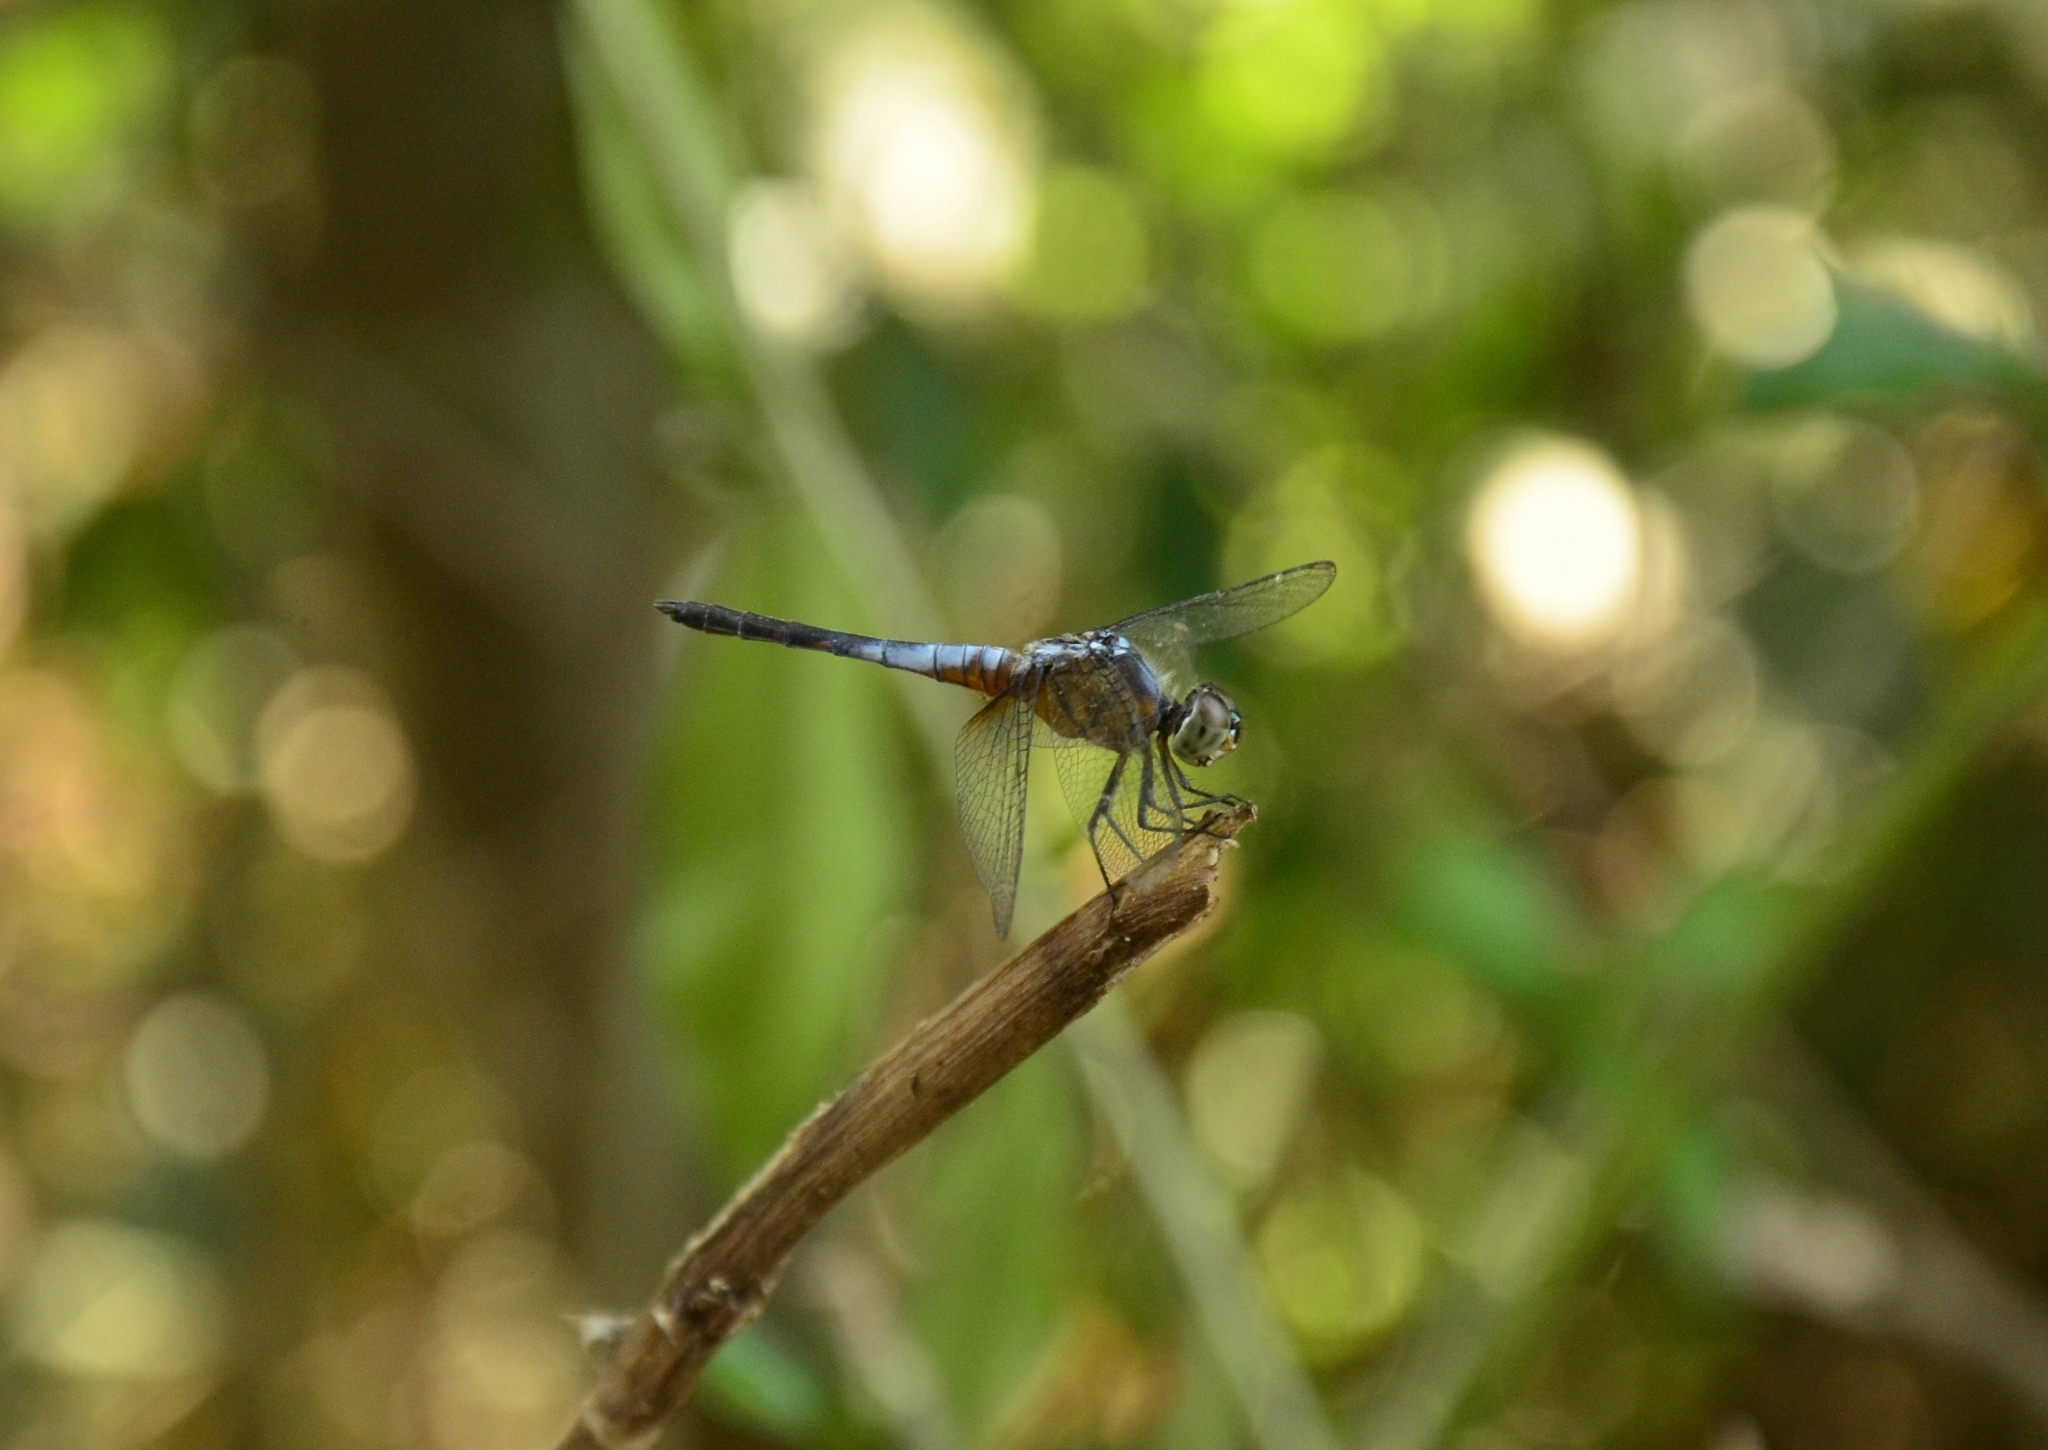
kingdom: Animalia
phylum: Arthropoda
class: Insecta
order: Odonata
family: Libellulidae
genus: Brachydiplax
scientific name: Brachydiplax chalybea
